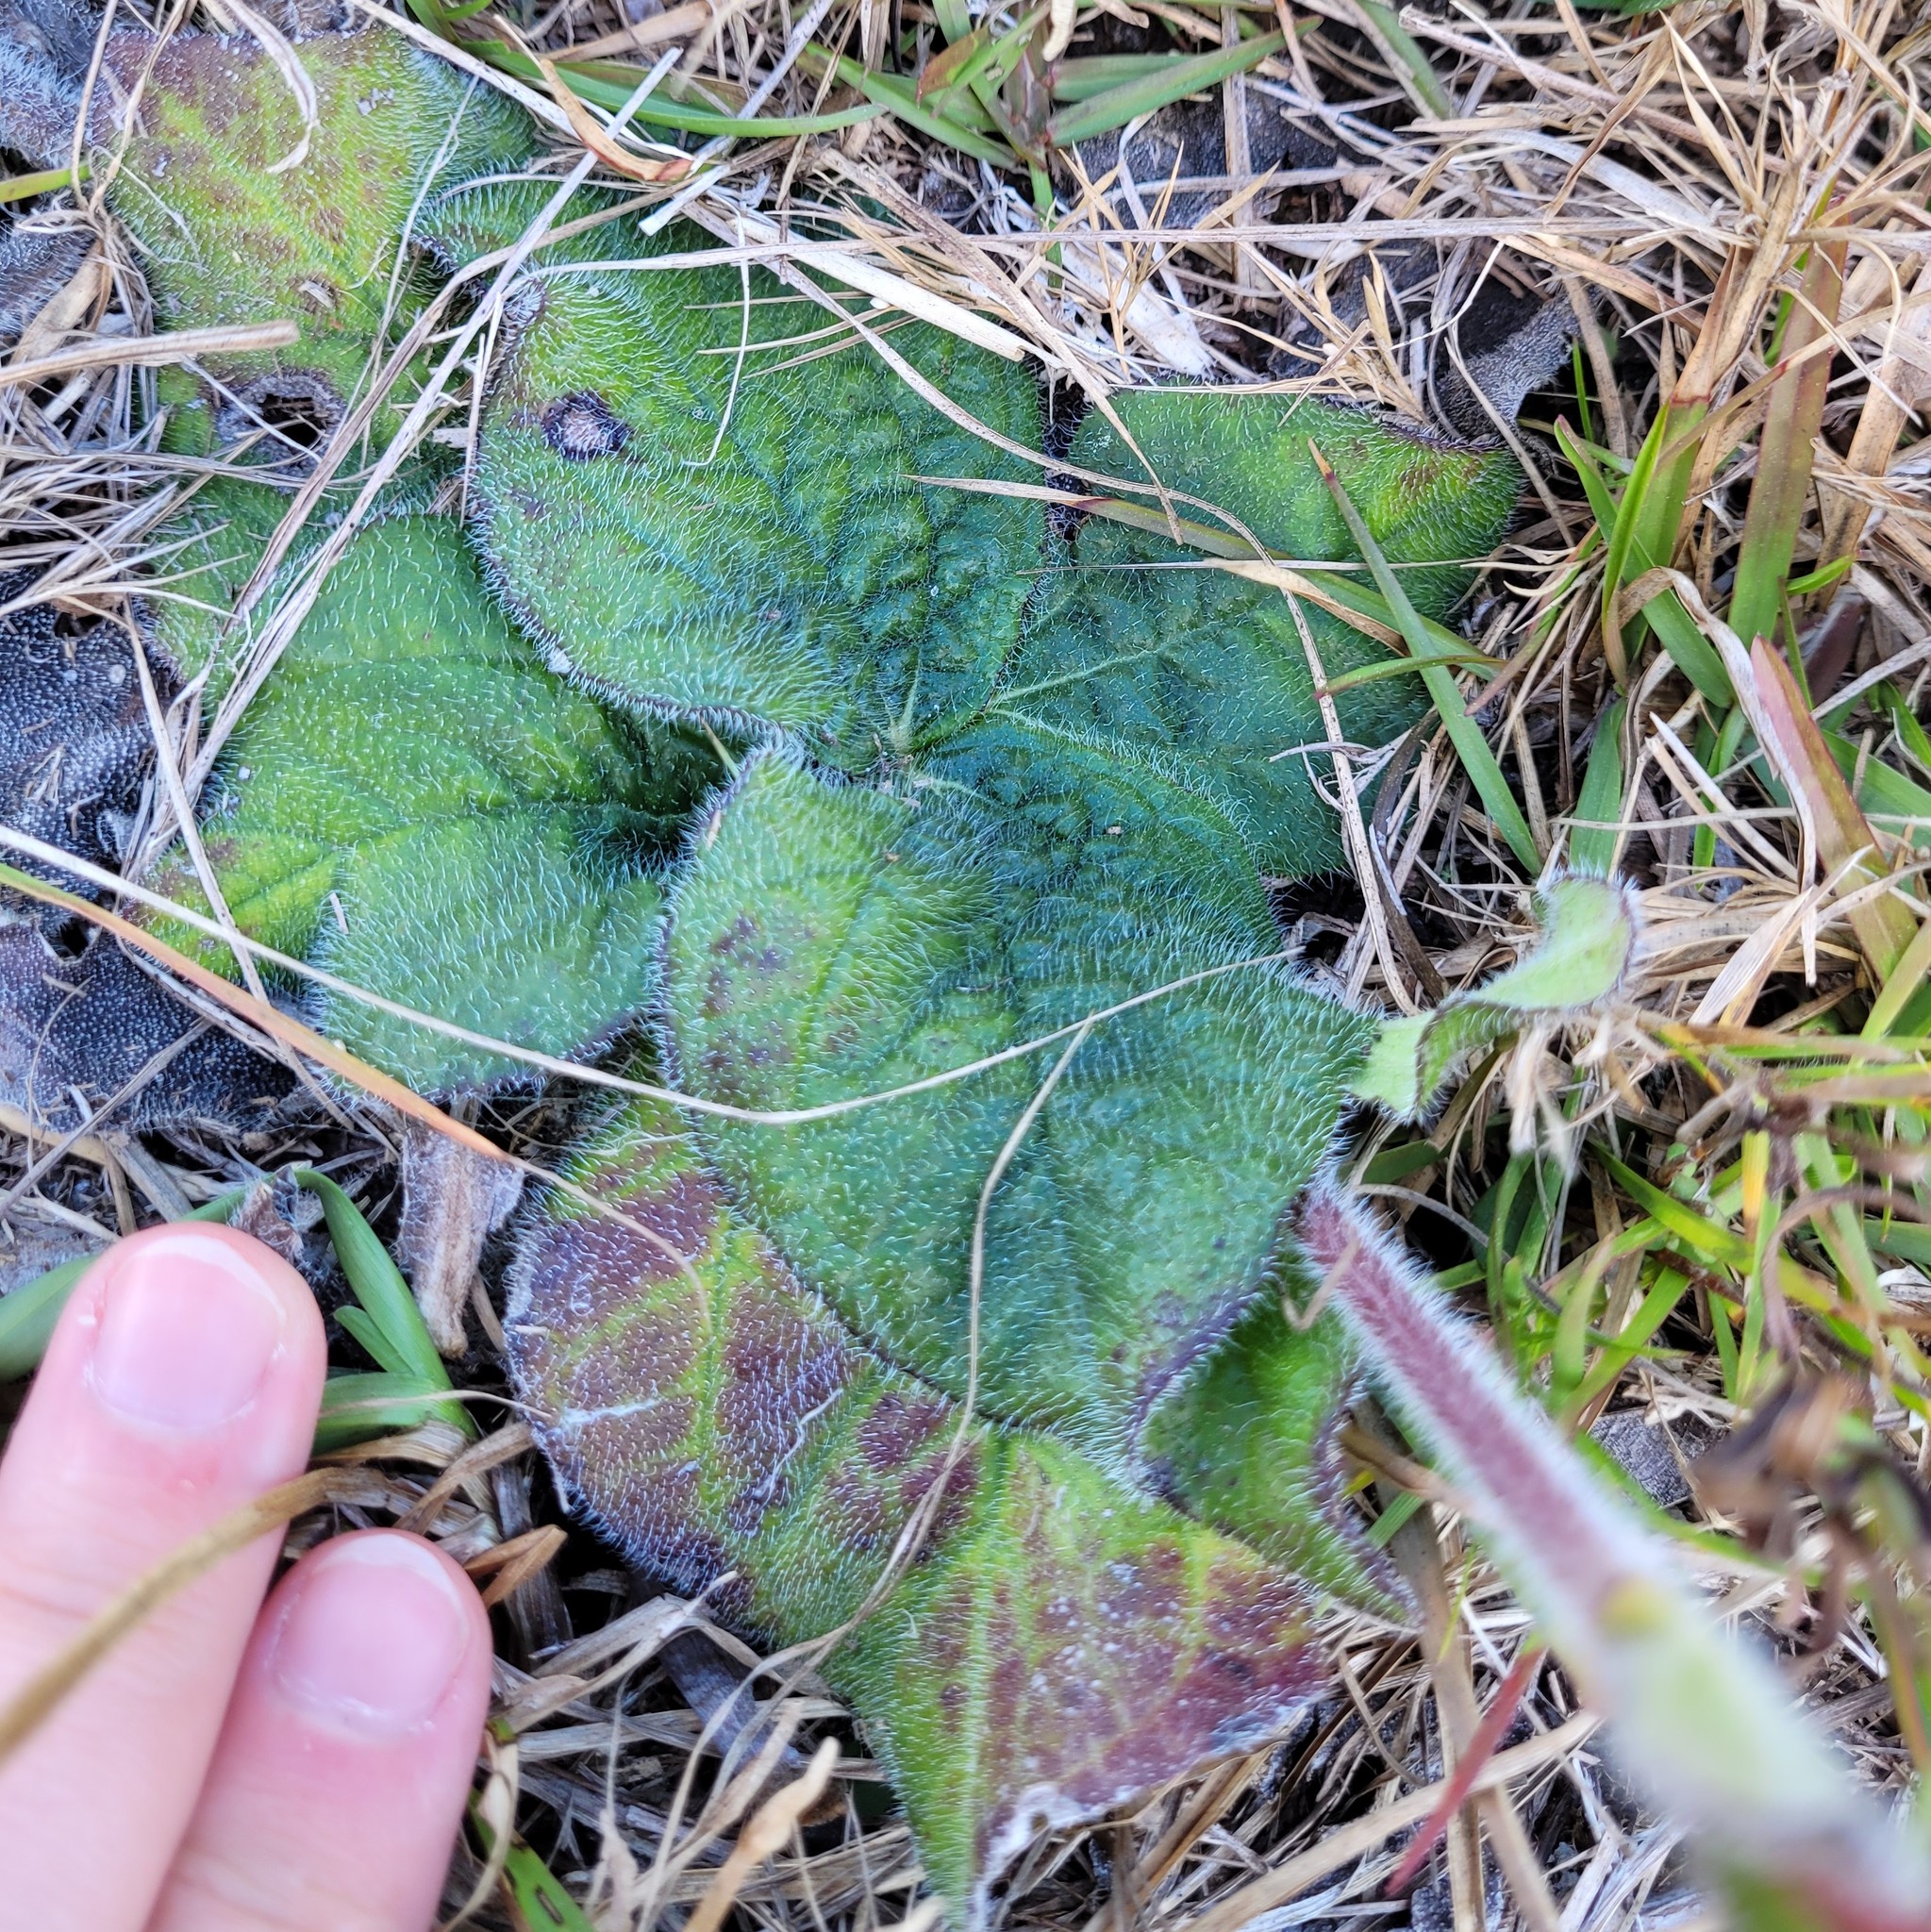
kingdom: Plantae
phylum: Tracheophyta
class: Magnoliopsida
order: Asterales
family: Asteraceae
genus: Helianthus
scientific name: Helianthus radula
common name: Pineland sunflower
